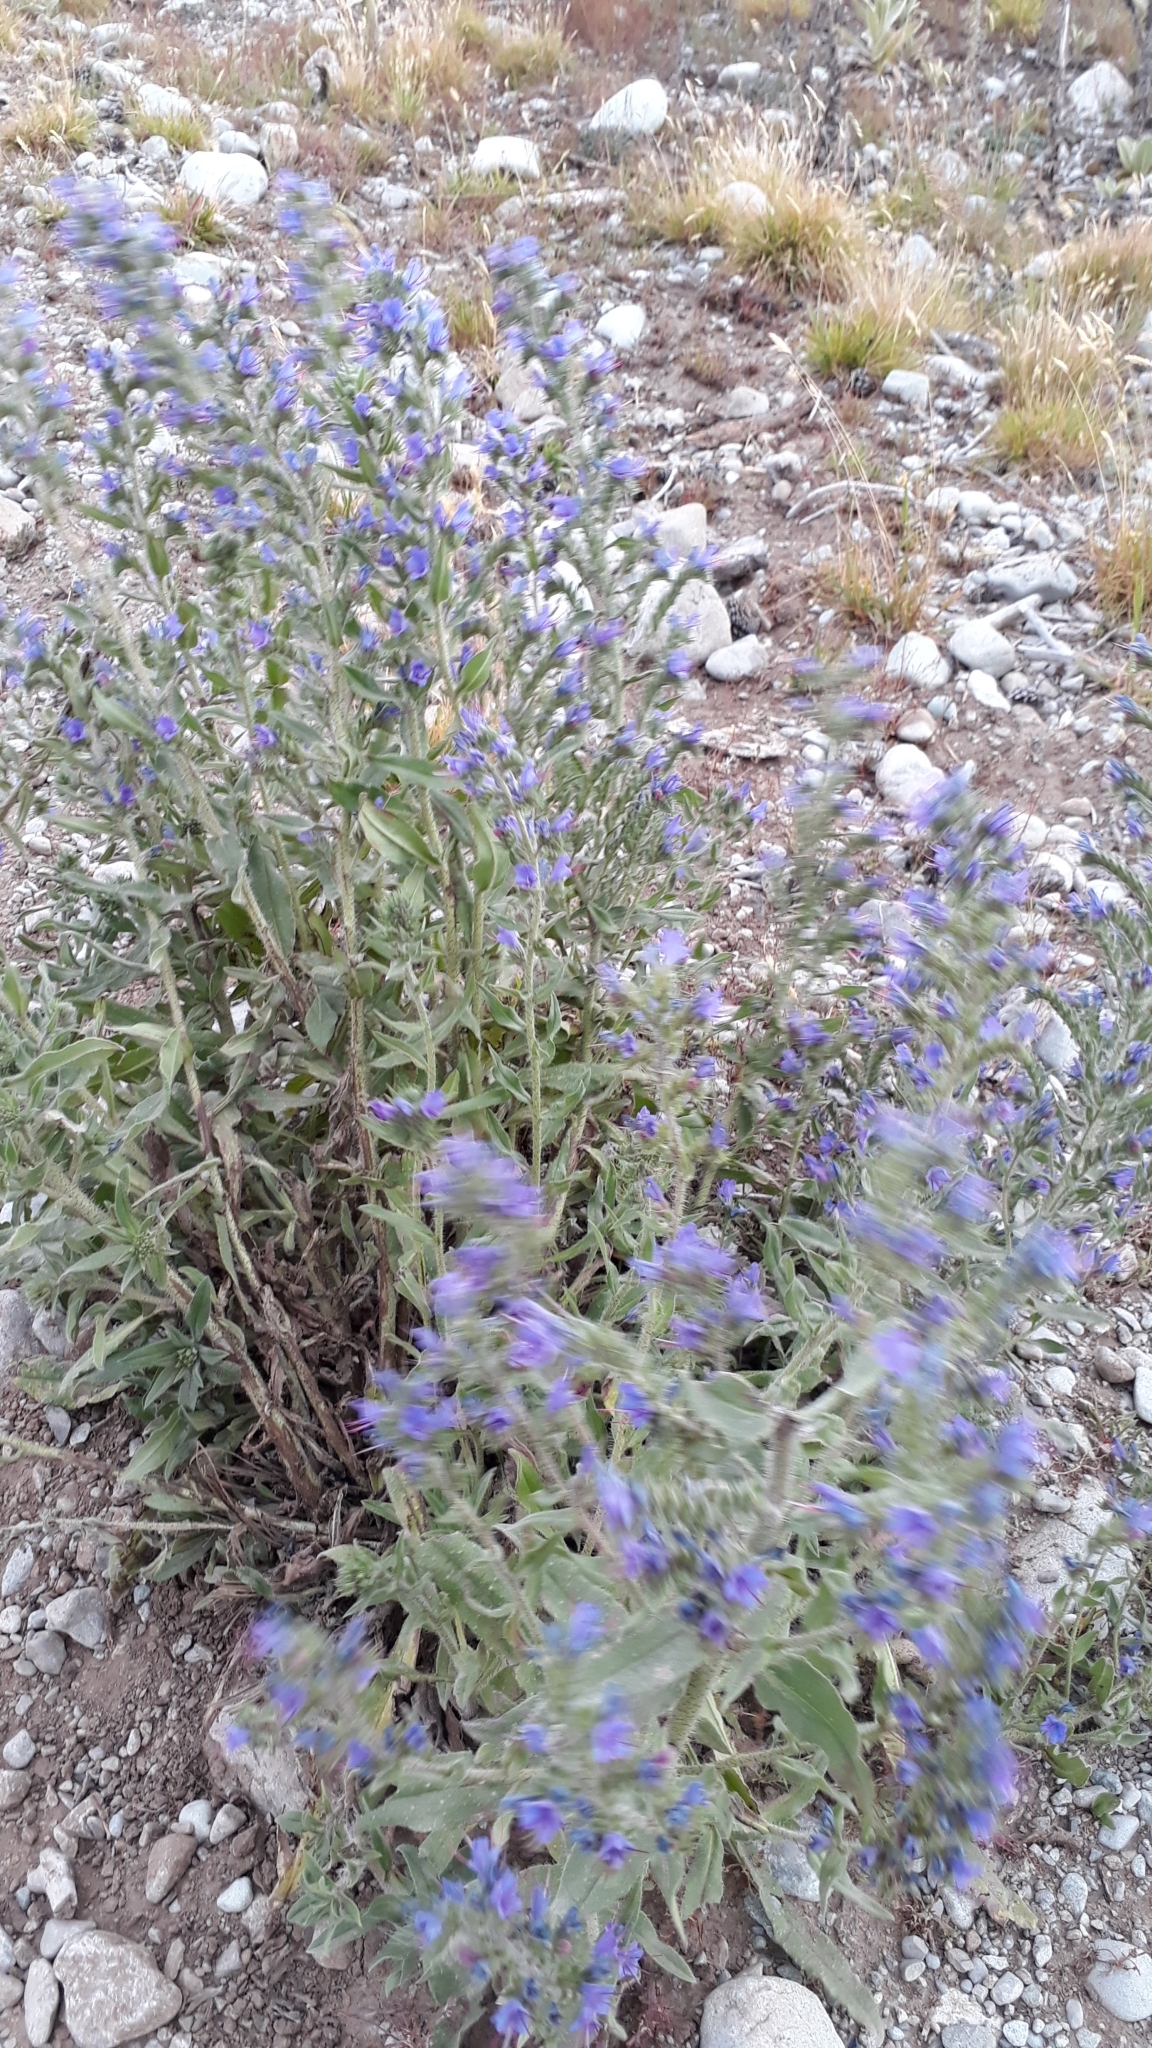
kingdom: Plantae
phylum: Tracheophyta
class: Magnoliopsida
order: Boraginales
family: Boraginaceae
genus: Echium
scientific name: Echium vulgare
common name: Common viper's bugloss
